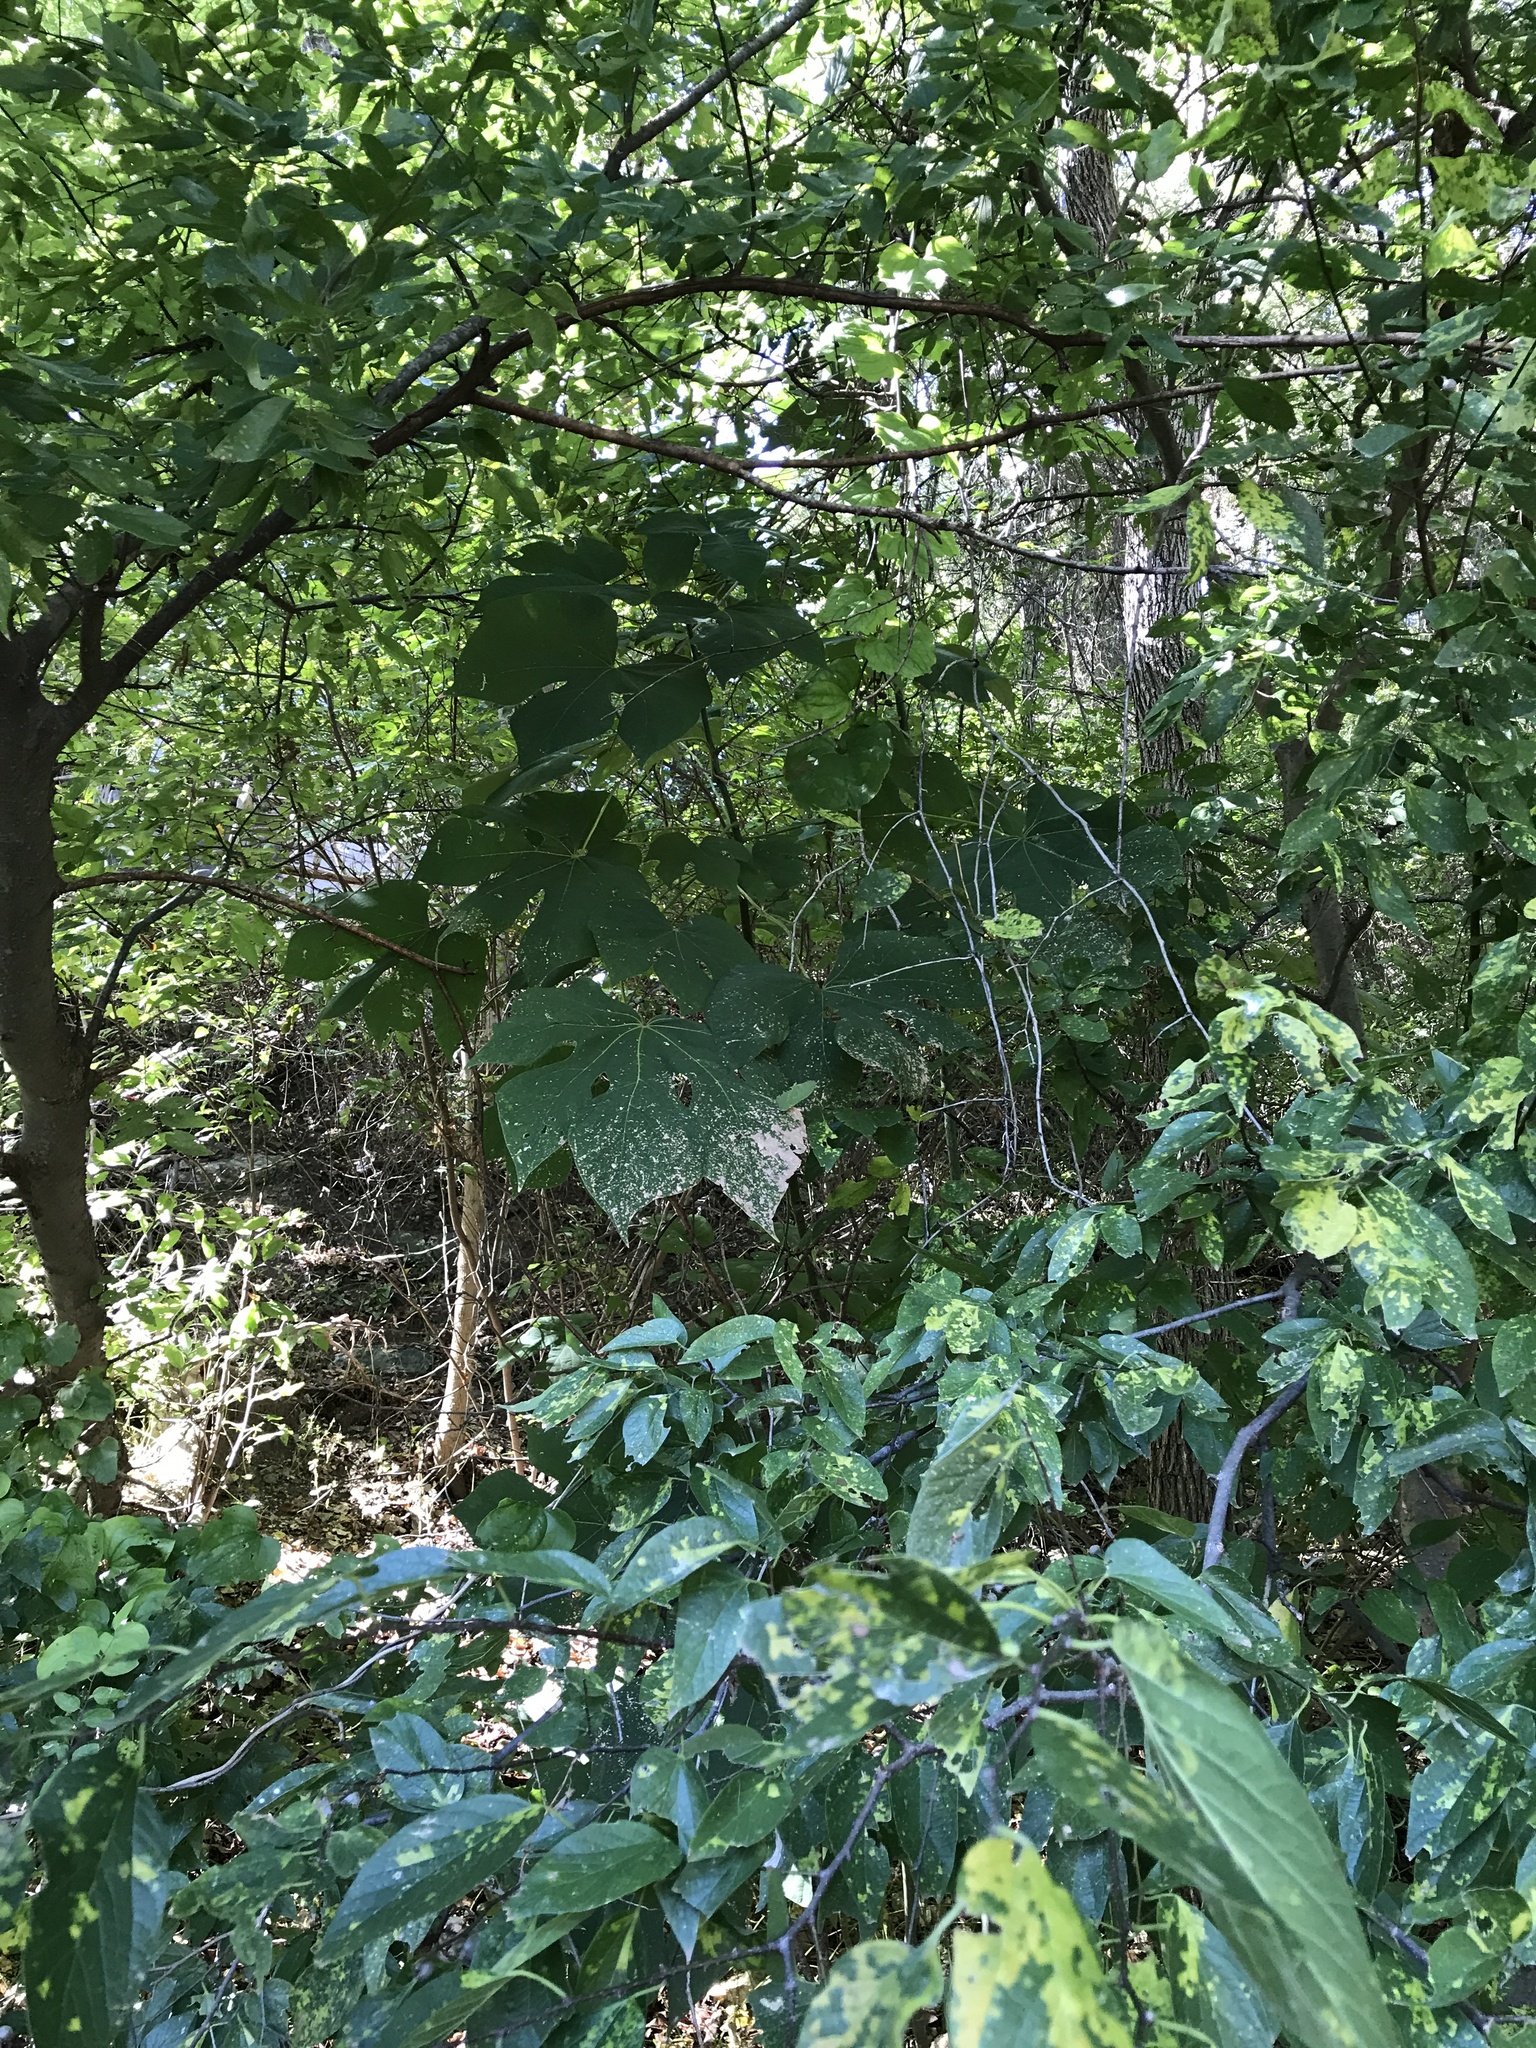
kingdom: Plantae
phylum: Tracheophyta
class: Magnoliopsida
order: Malvales
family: Malvaceae
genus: Firmiana
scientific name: Firmiana simplex
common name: Chinese parasoltree
